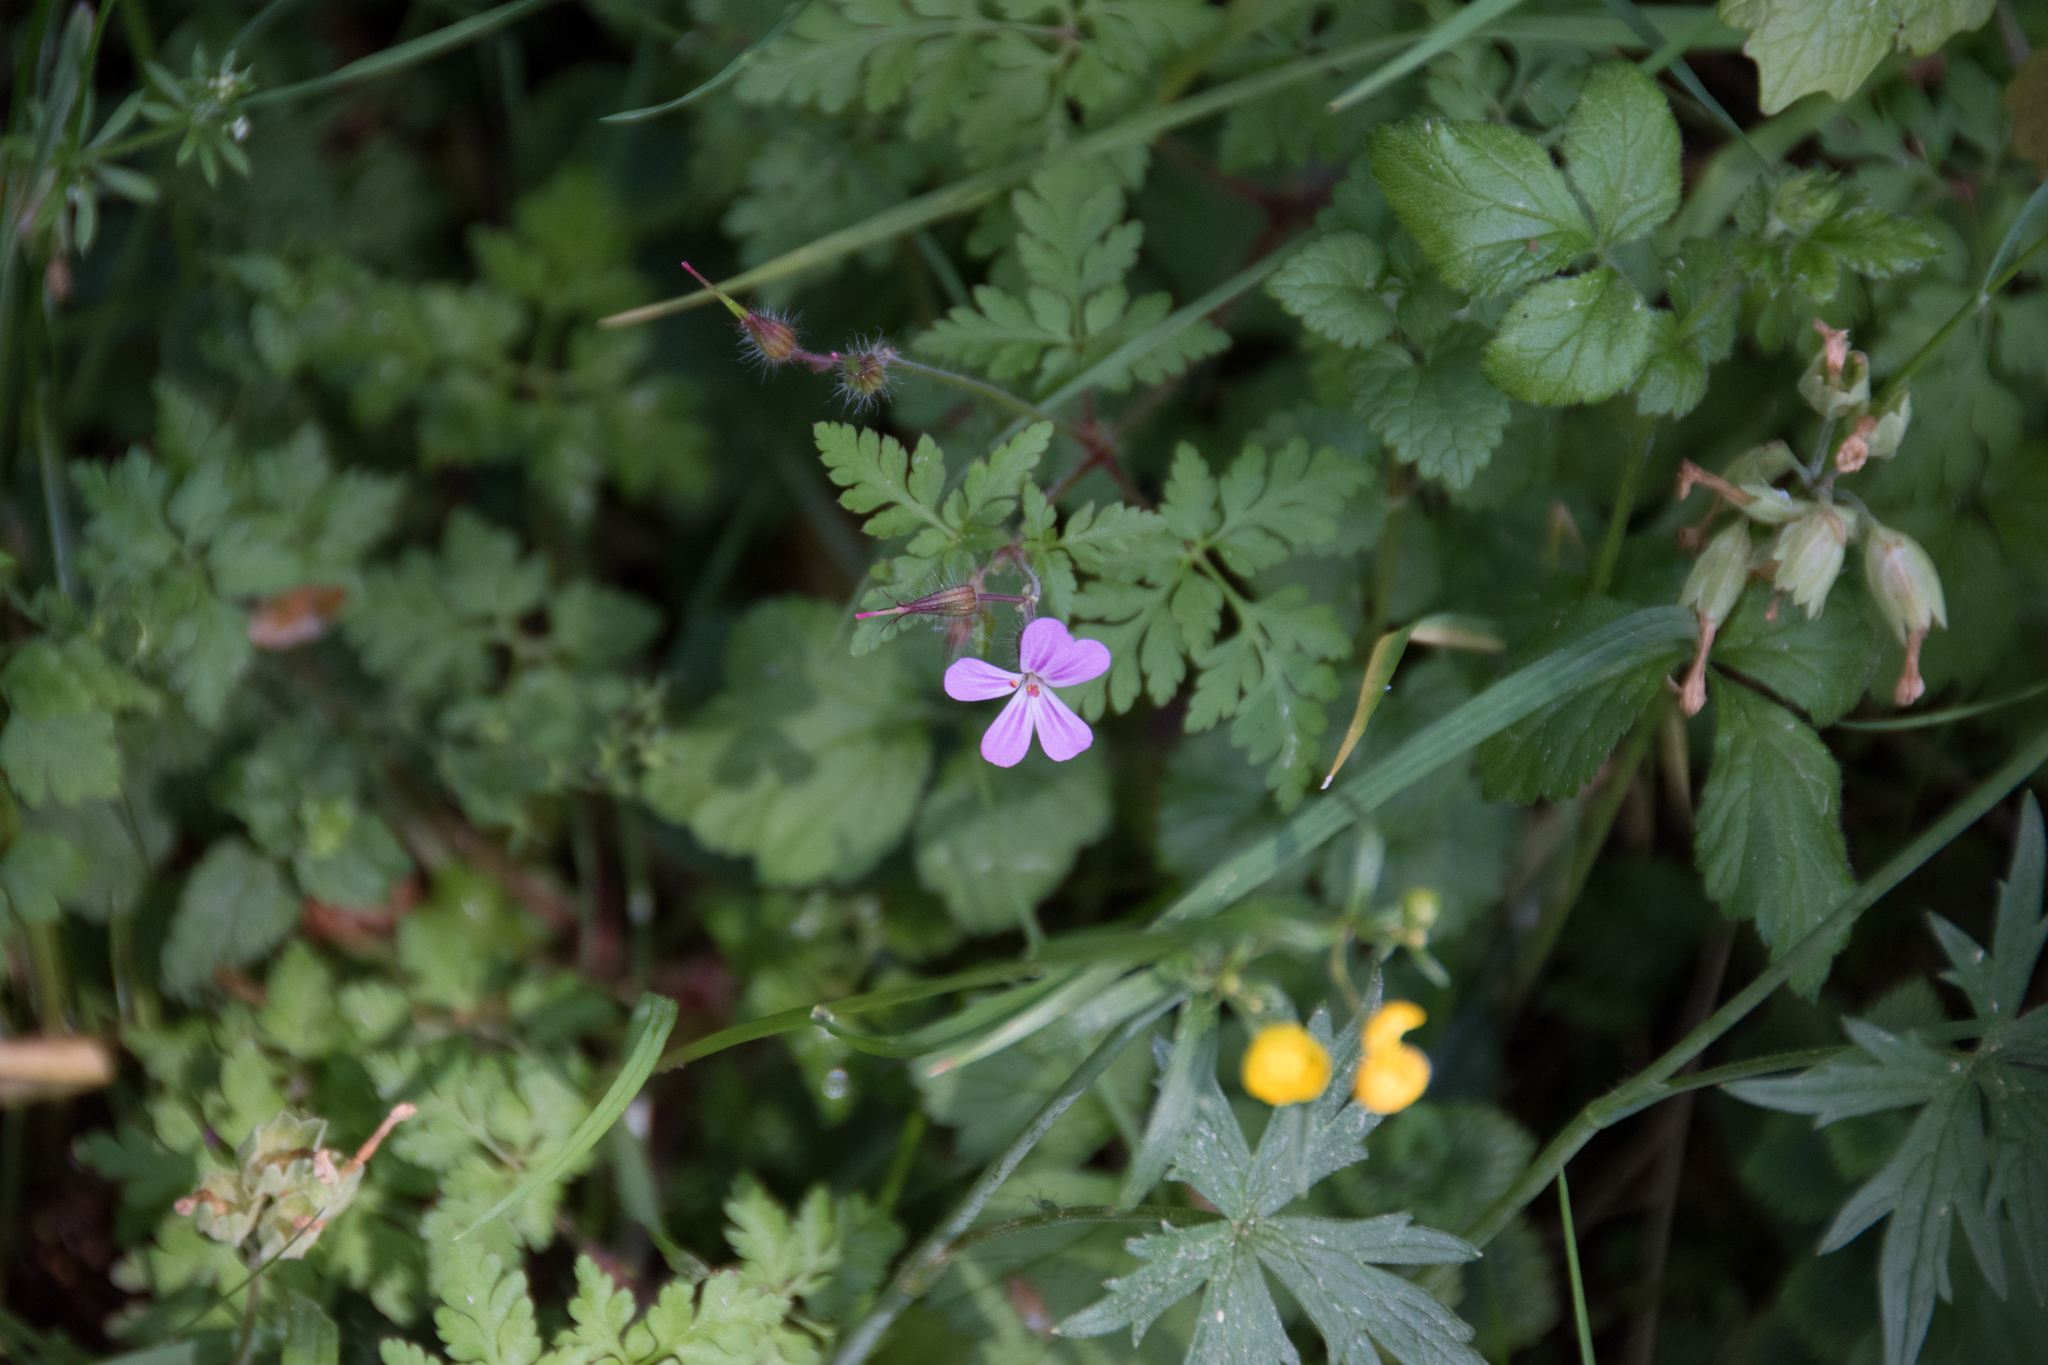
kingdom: Plantae
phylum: Tracheophyta
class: Magnoliopsida
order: Geraniales
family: Geraniaceae
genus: Geranium
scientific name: Geranium robertianum
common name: Herb-robert
